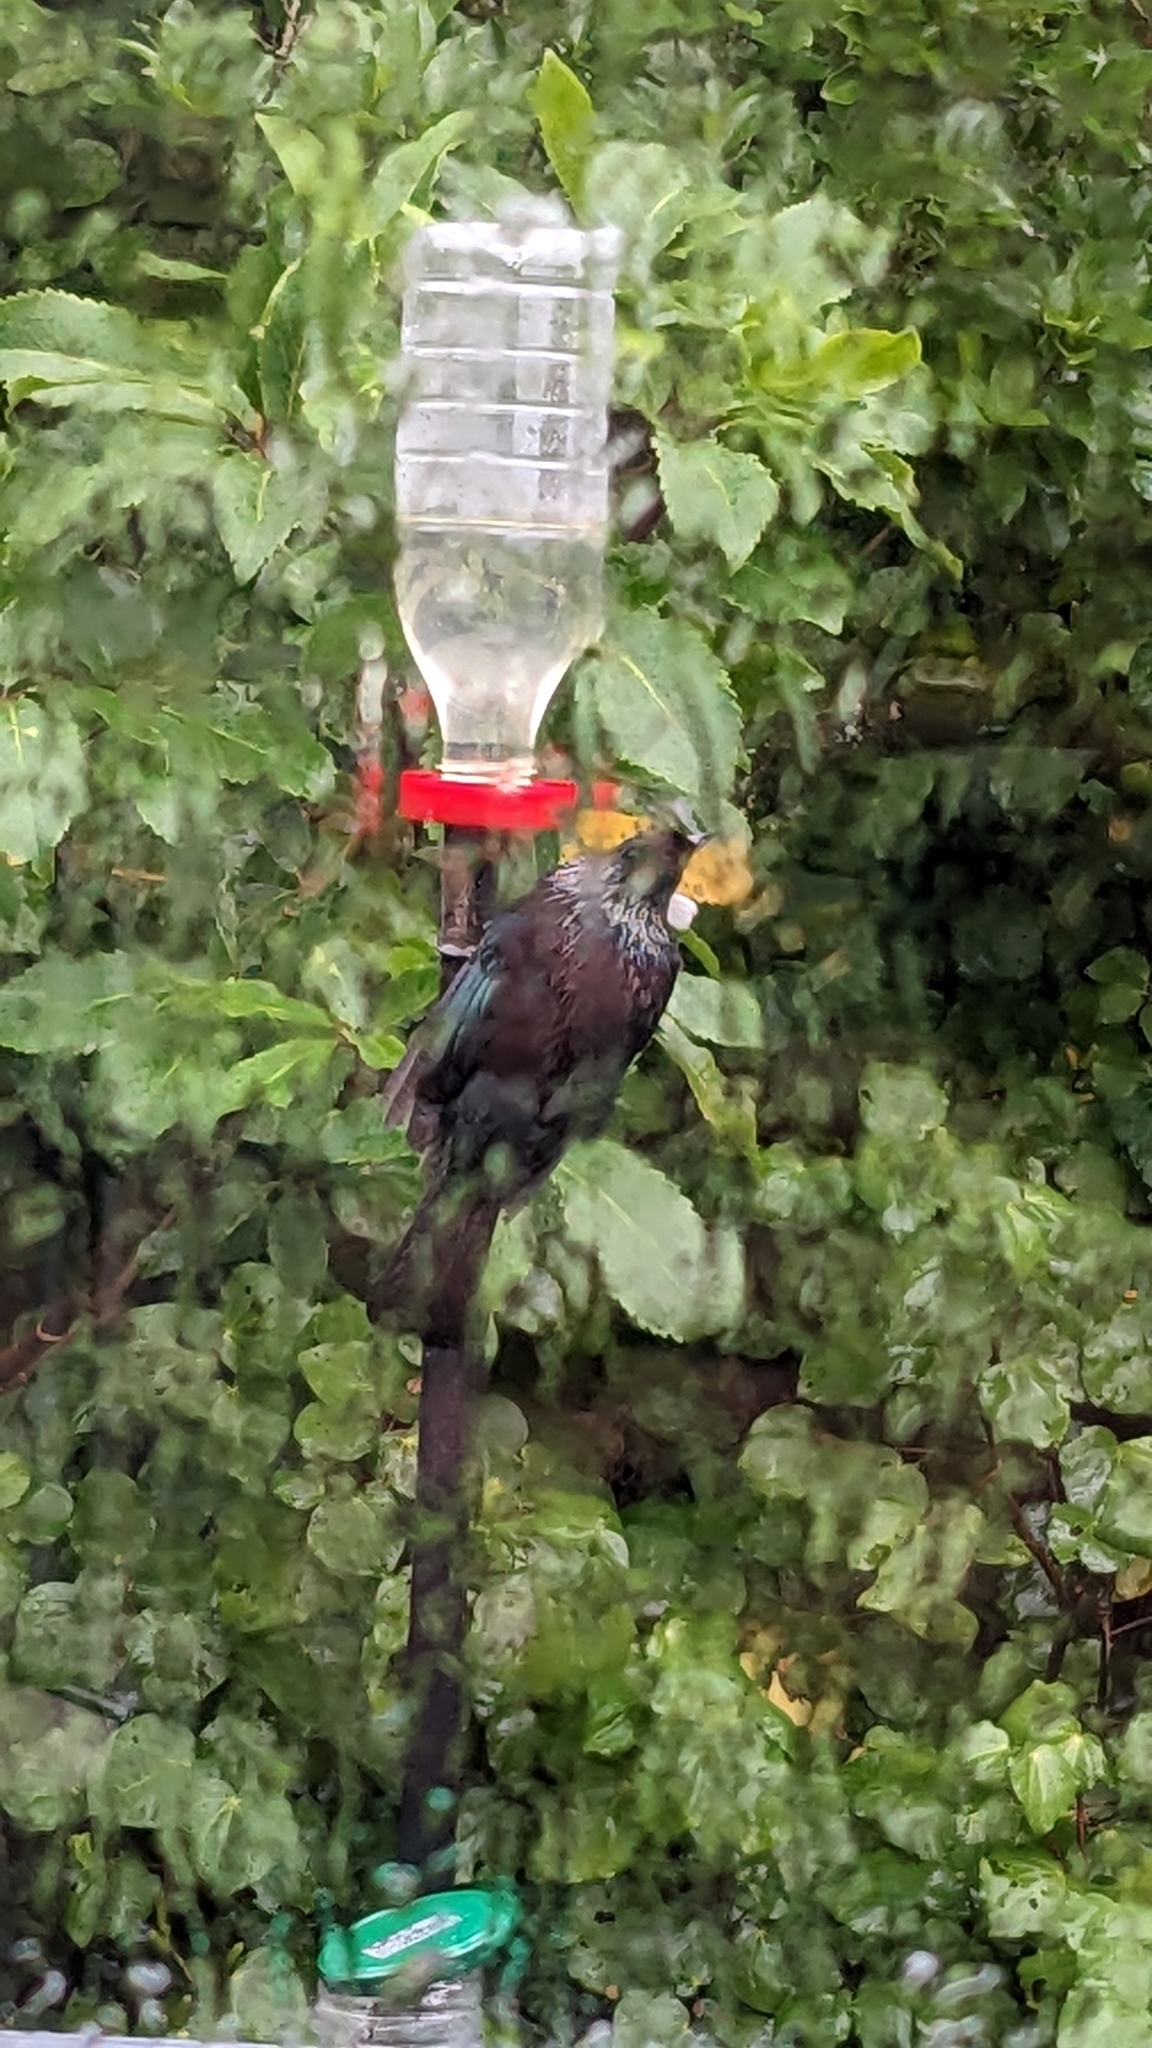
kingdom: Animalia
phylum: Chordata
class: Aves
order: Passeriformes
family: Meliphagidae
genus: Prosthemadera
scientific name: Prosthemadera novaeseelandiae
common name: Tui
